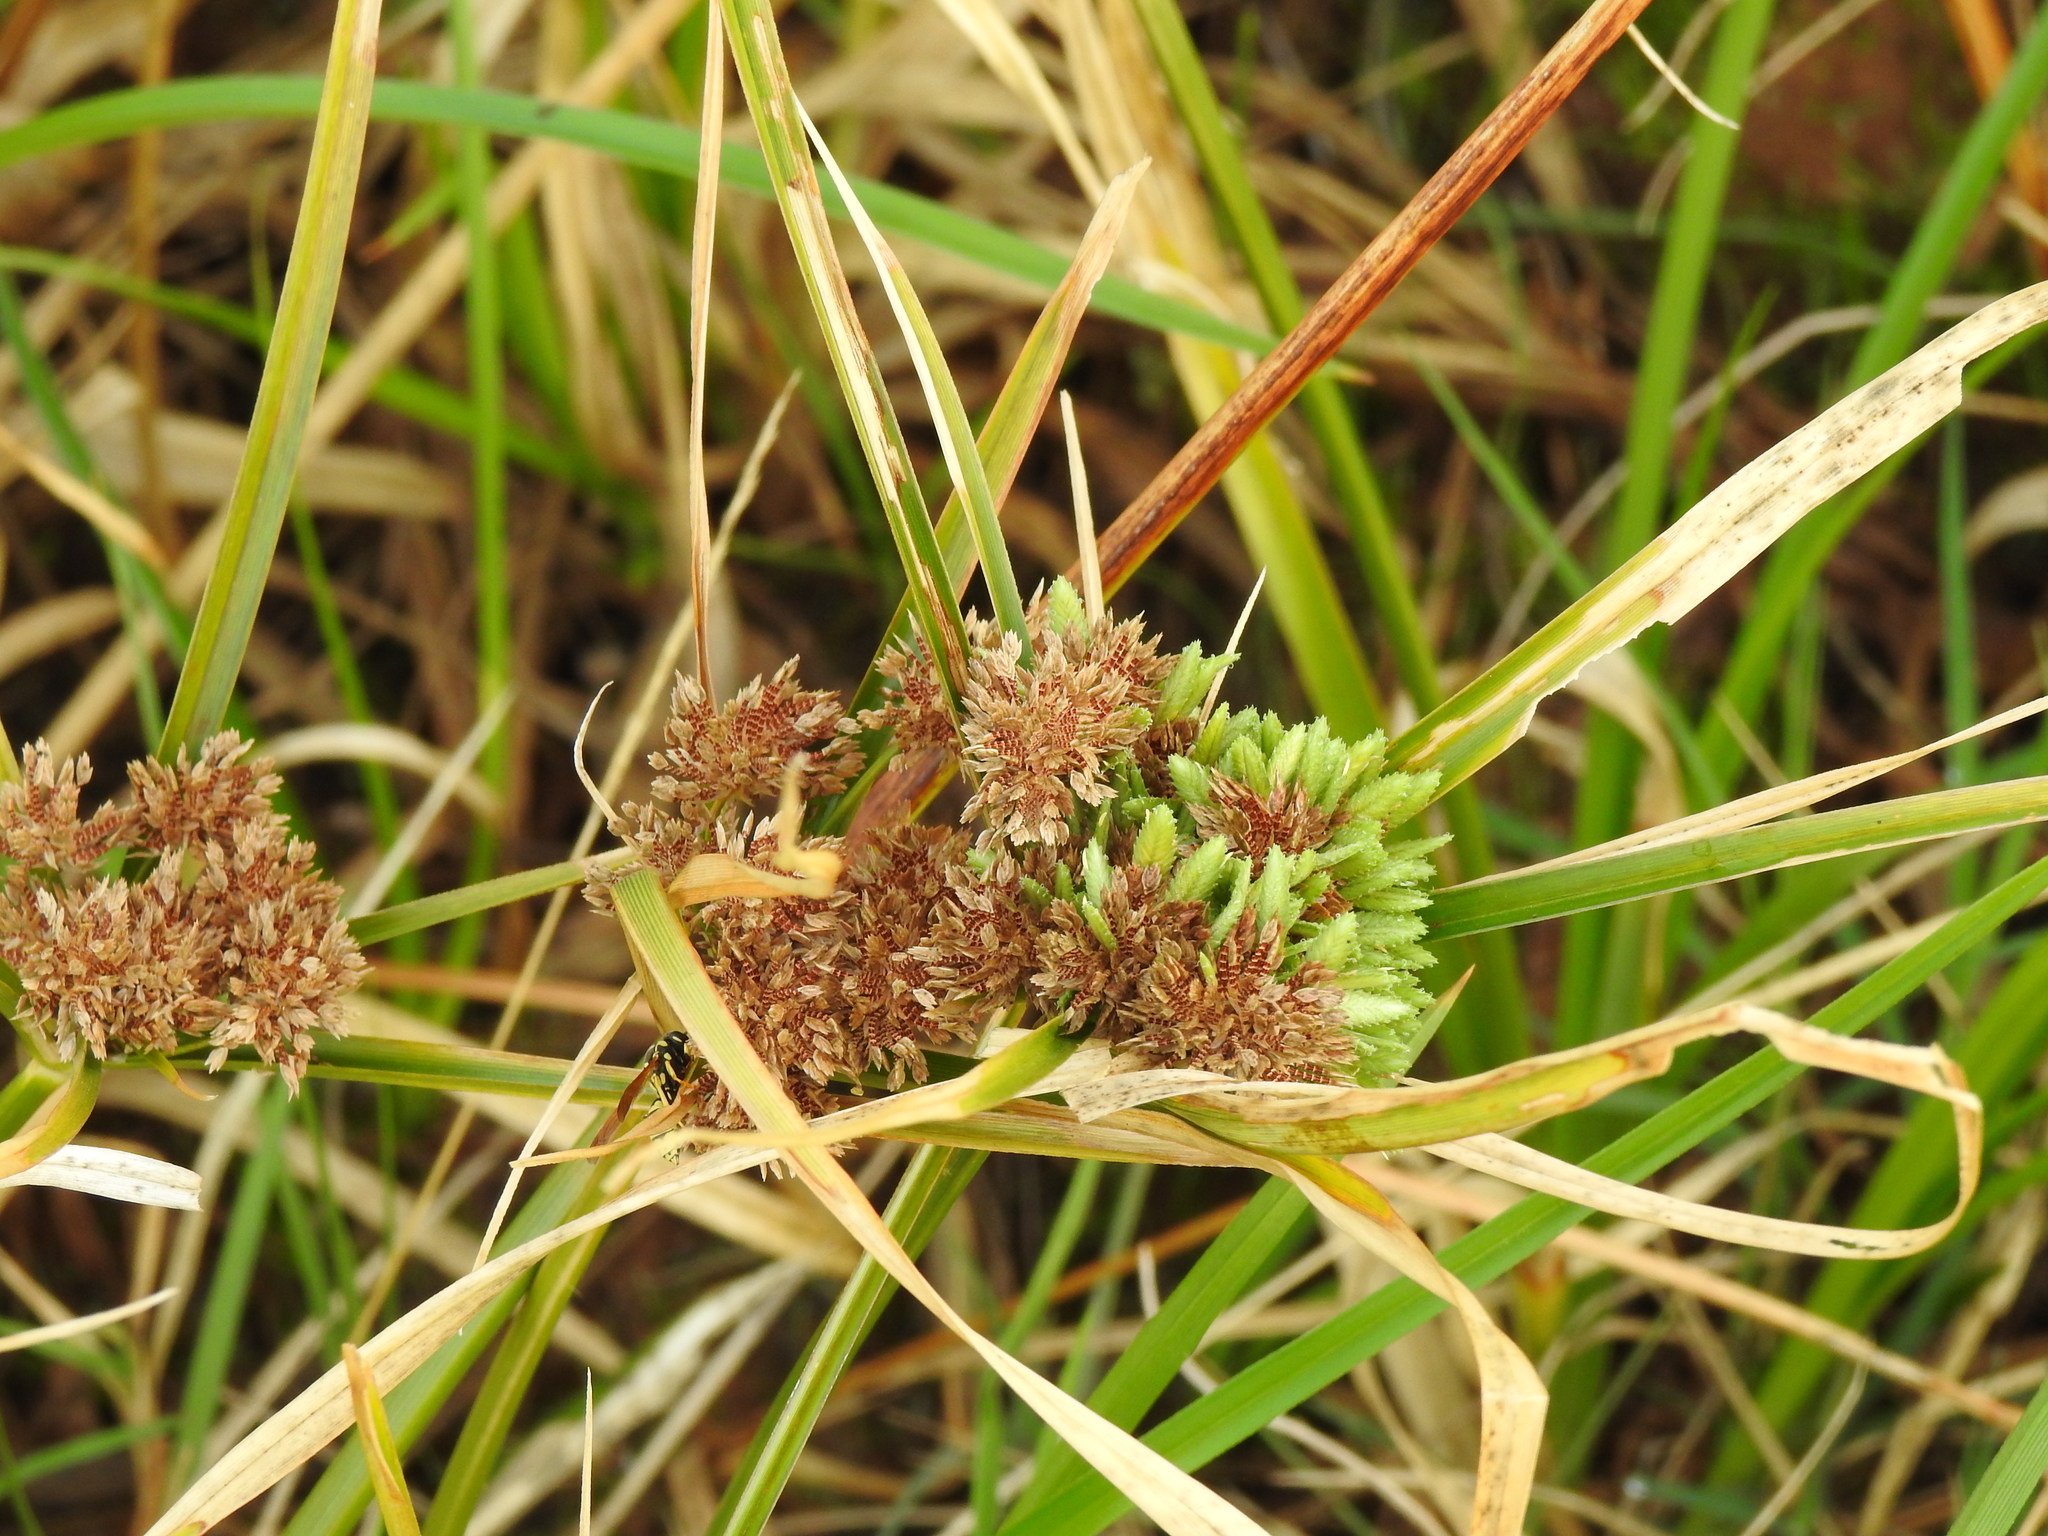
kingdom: Plantae
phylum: Tracheophyta
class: Liliopsida
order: Poales
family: Cyperaceae
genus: Cyperus
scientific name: Cyperus eragrostis
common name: Tall flatsedge
